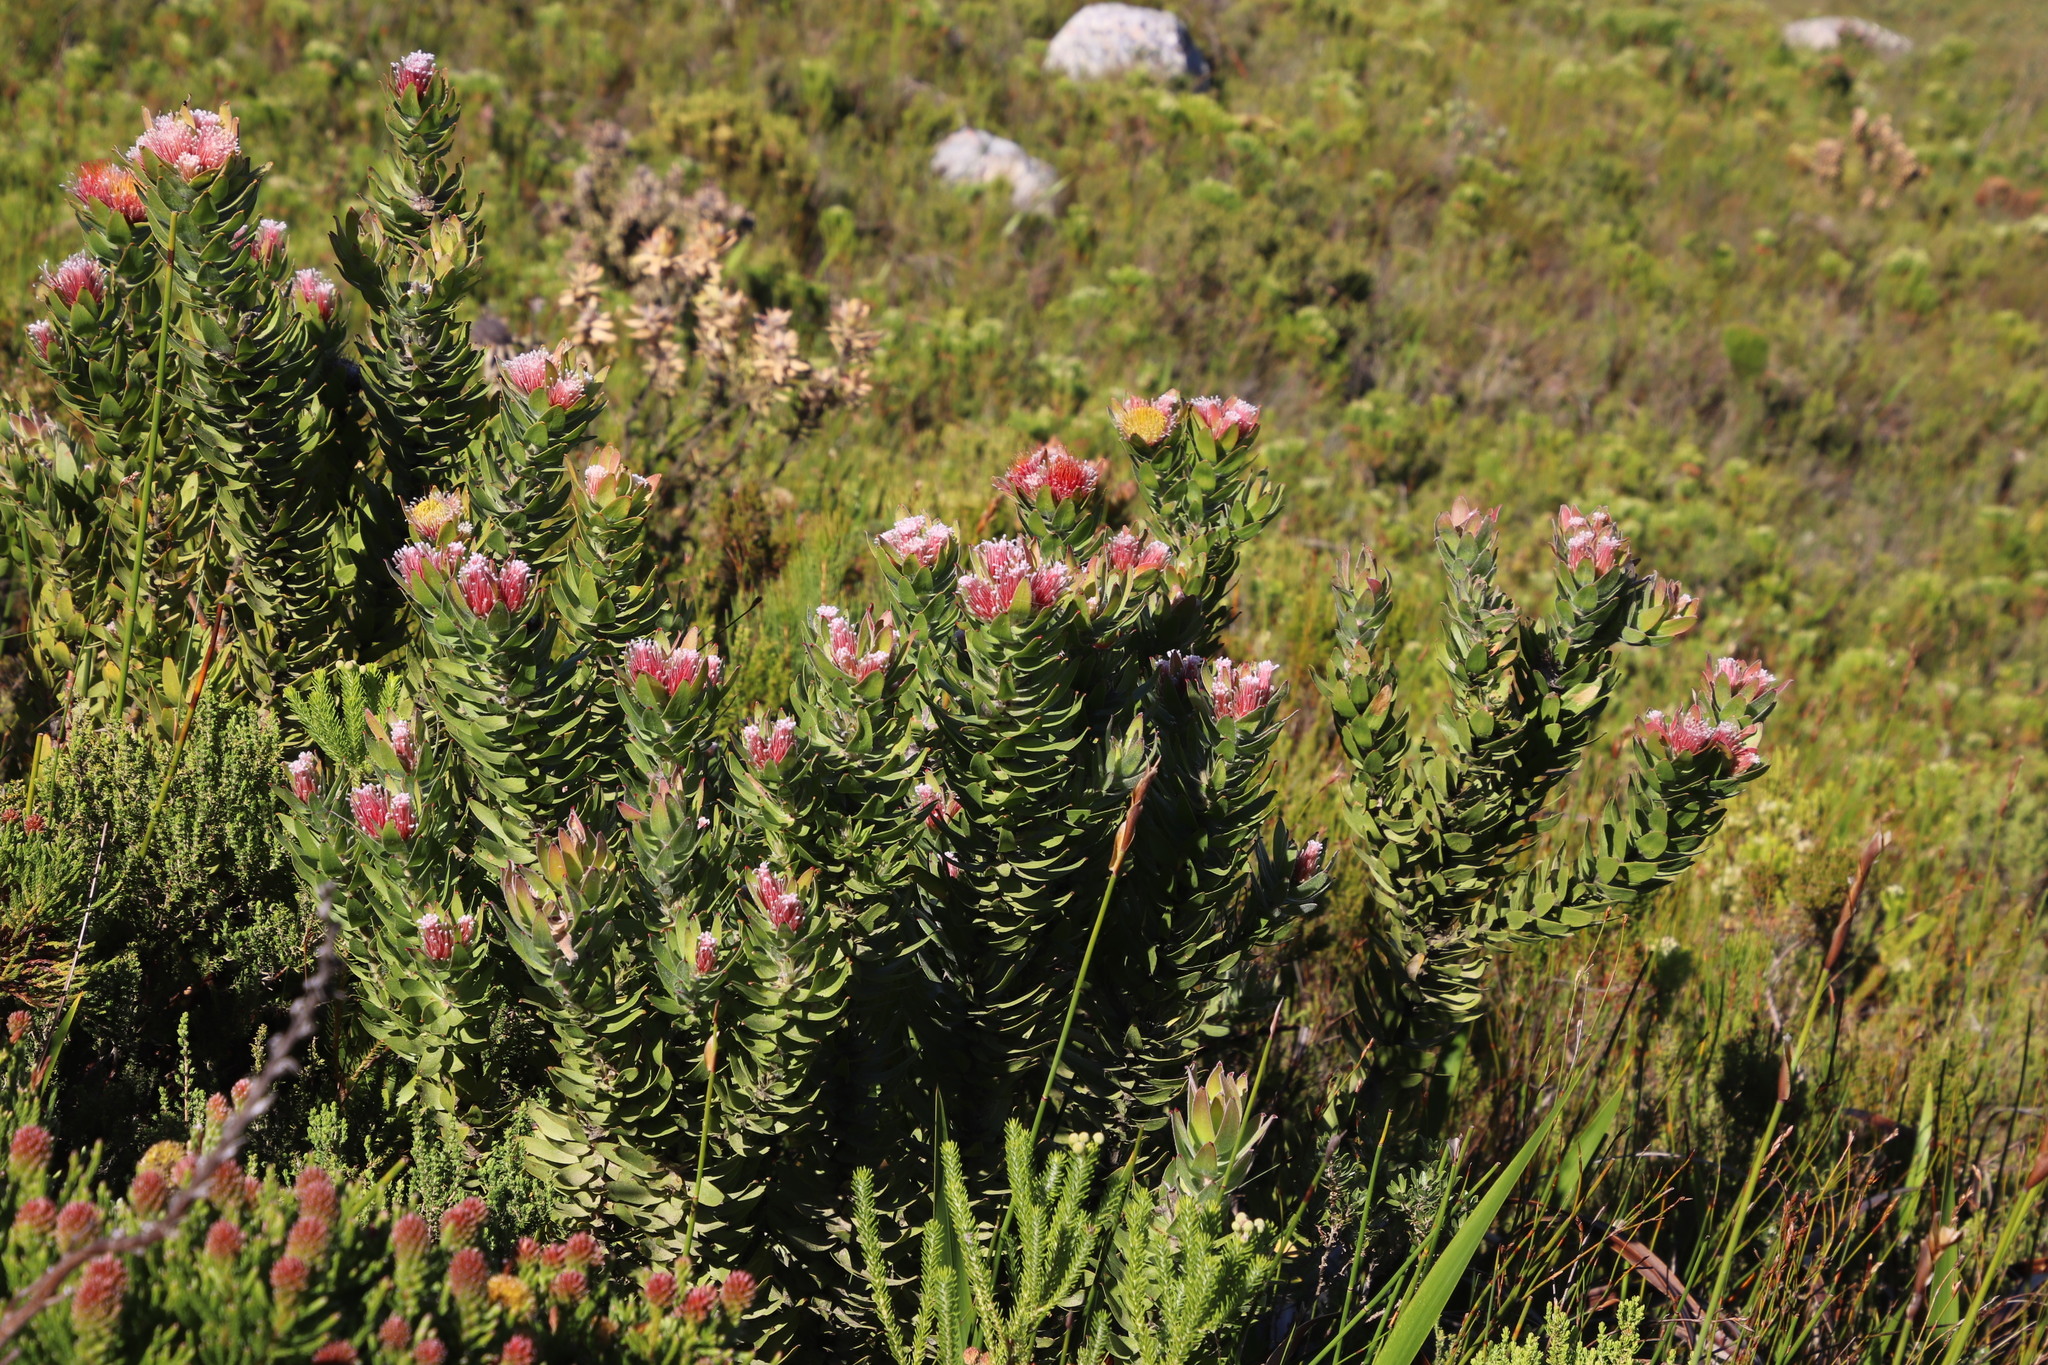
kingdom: Plantae
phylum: Tracheophyta
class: Magnoliopsida
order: Proteales
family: Proteaceae
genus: Leucospermum
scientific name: Leucospermum oleifolium
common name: Matches
